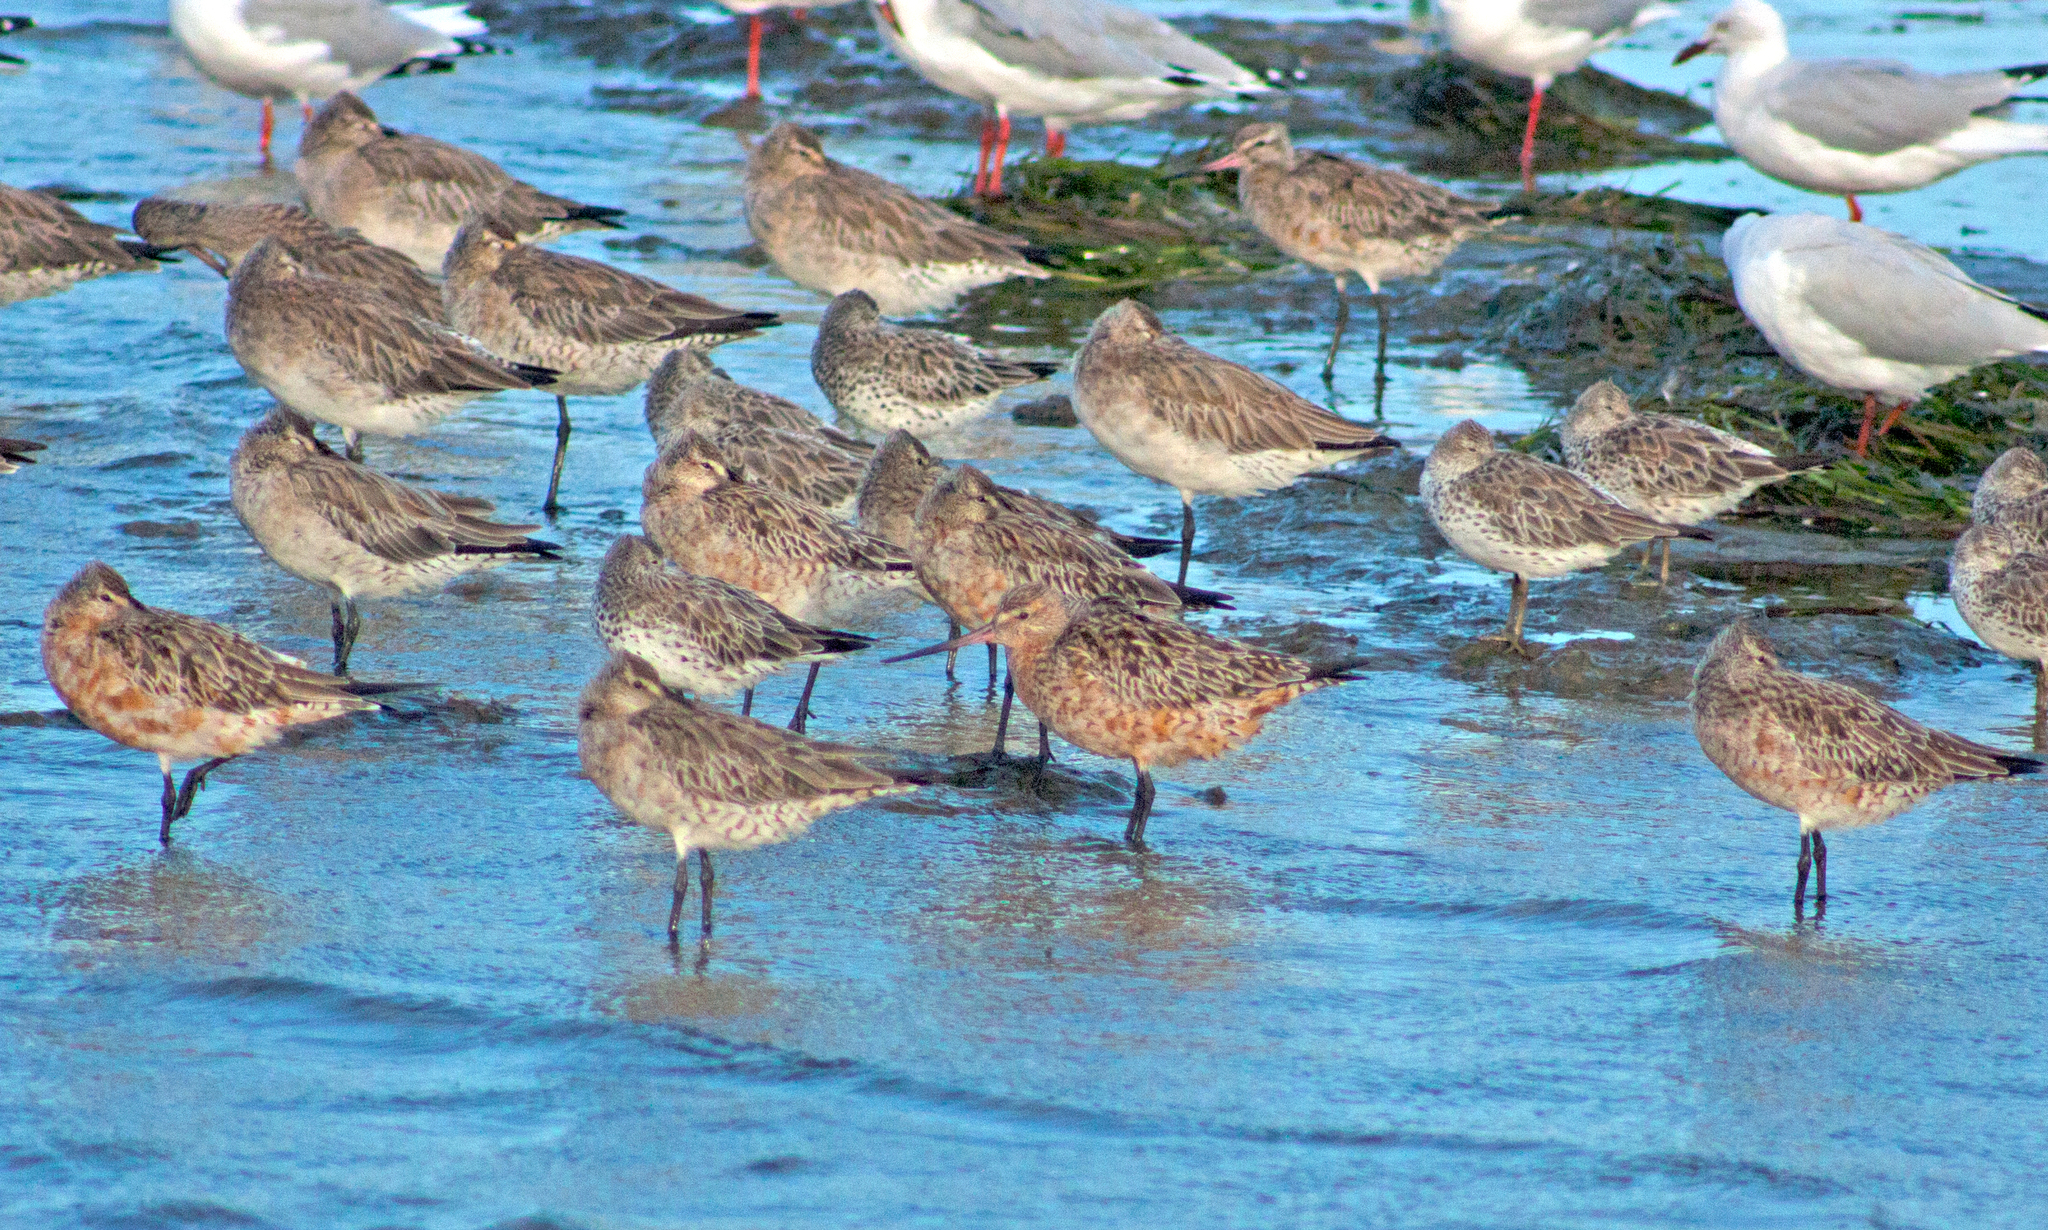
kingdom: Animalia
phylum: Chordata
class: Aves
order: Charadriiformes
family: Scolopacidae
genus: Limosa
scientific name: Limosa lapponica
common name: Bar-tailed godwit
